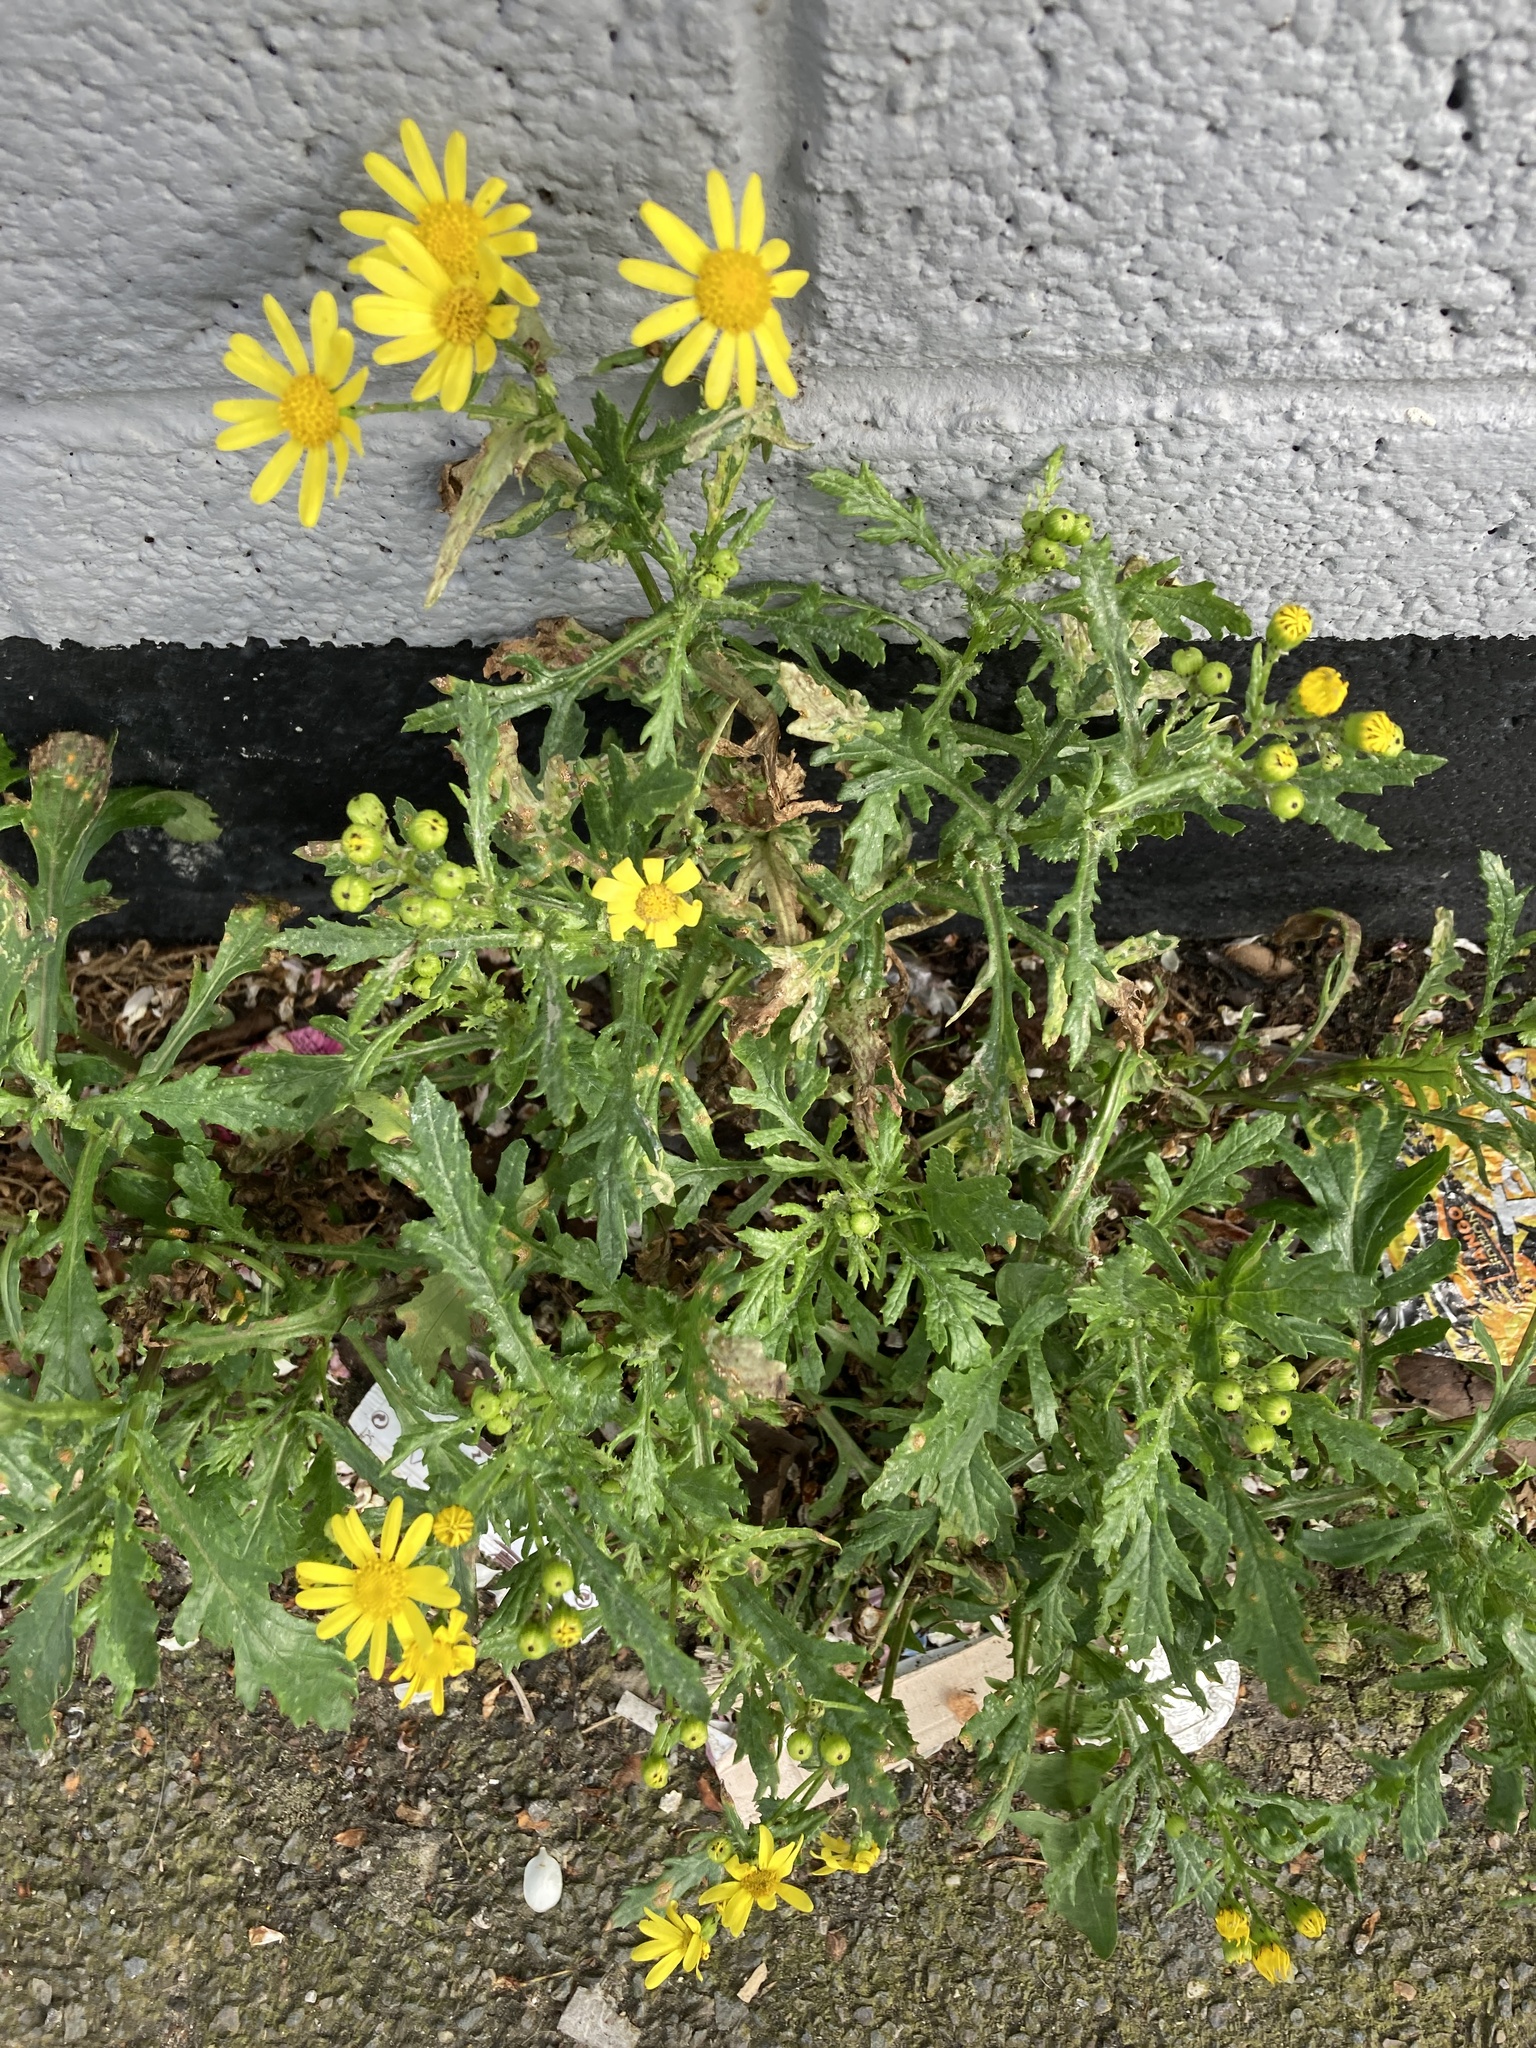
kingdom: Plantae
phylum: Tracheophyta
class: Magnoliopsida
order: Asterales
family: Asteraceae
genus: Senecio
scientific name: Senecio squalidus
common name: Oxford ragwort
